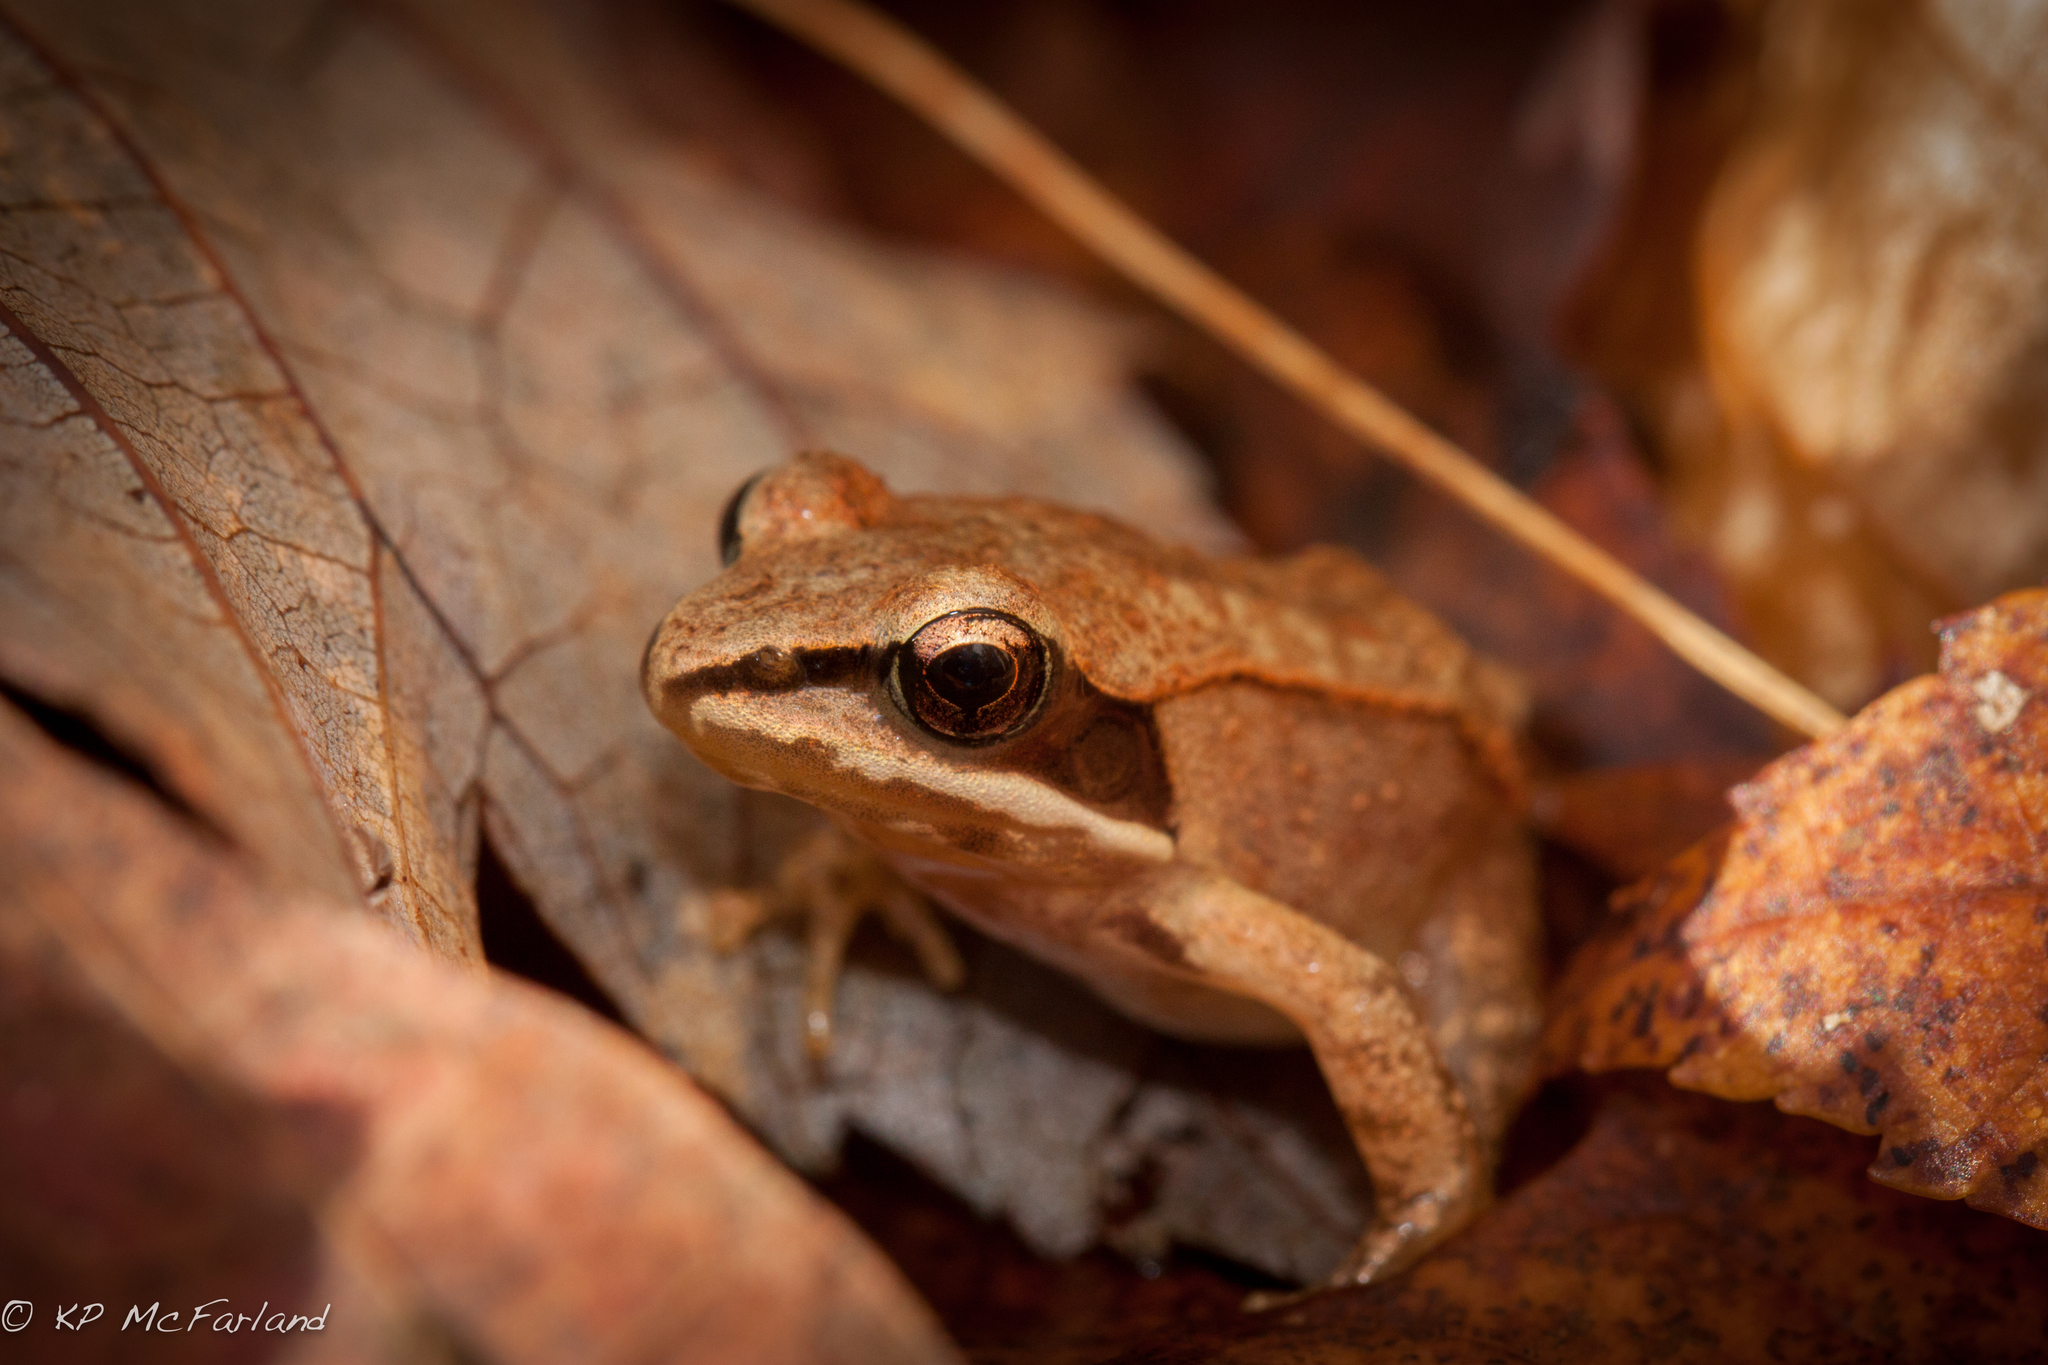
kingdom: Animalia
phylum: Chordata
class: Amphibia
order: Anura
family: Ranidae
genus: Lithobates
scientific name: Lithobates sylvaticus
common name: Wood frog
